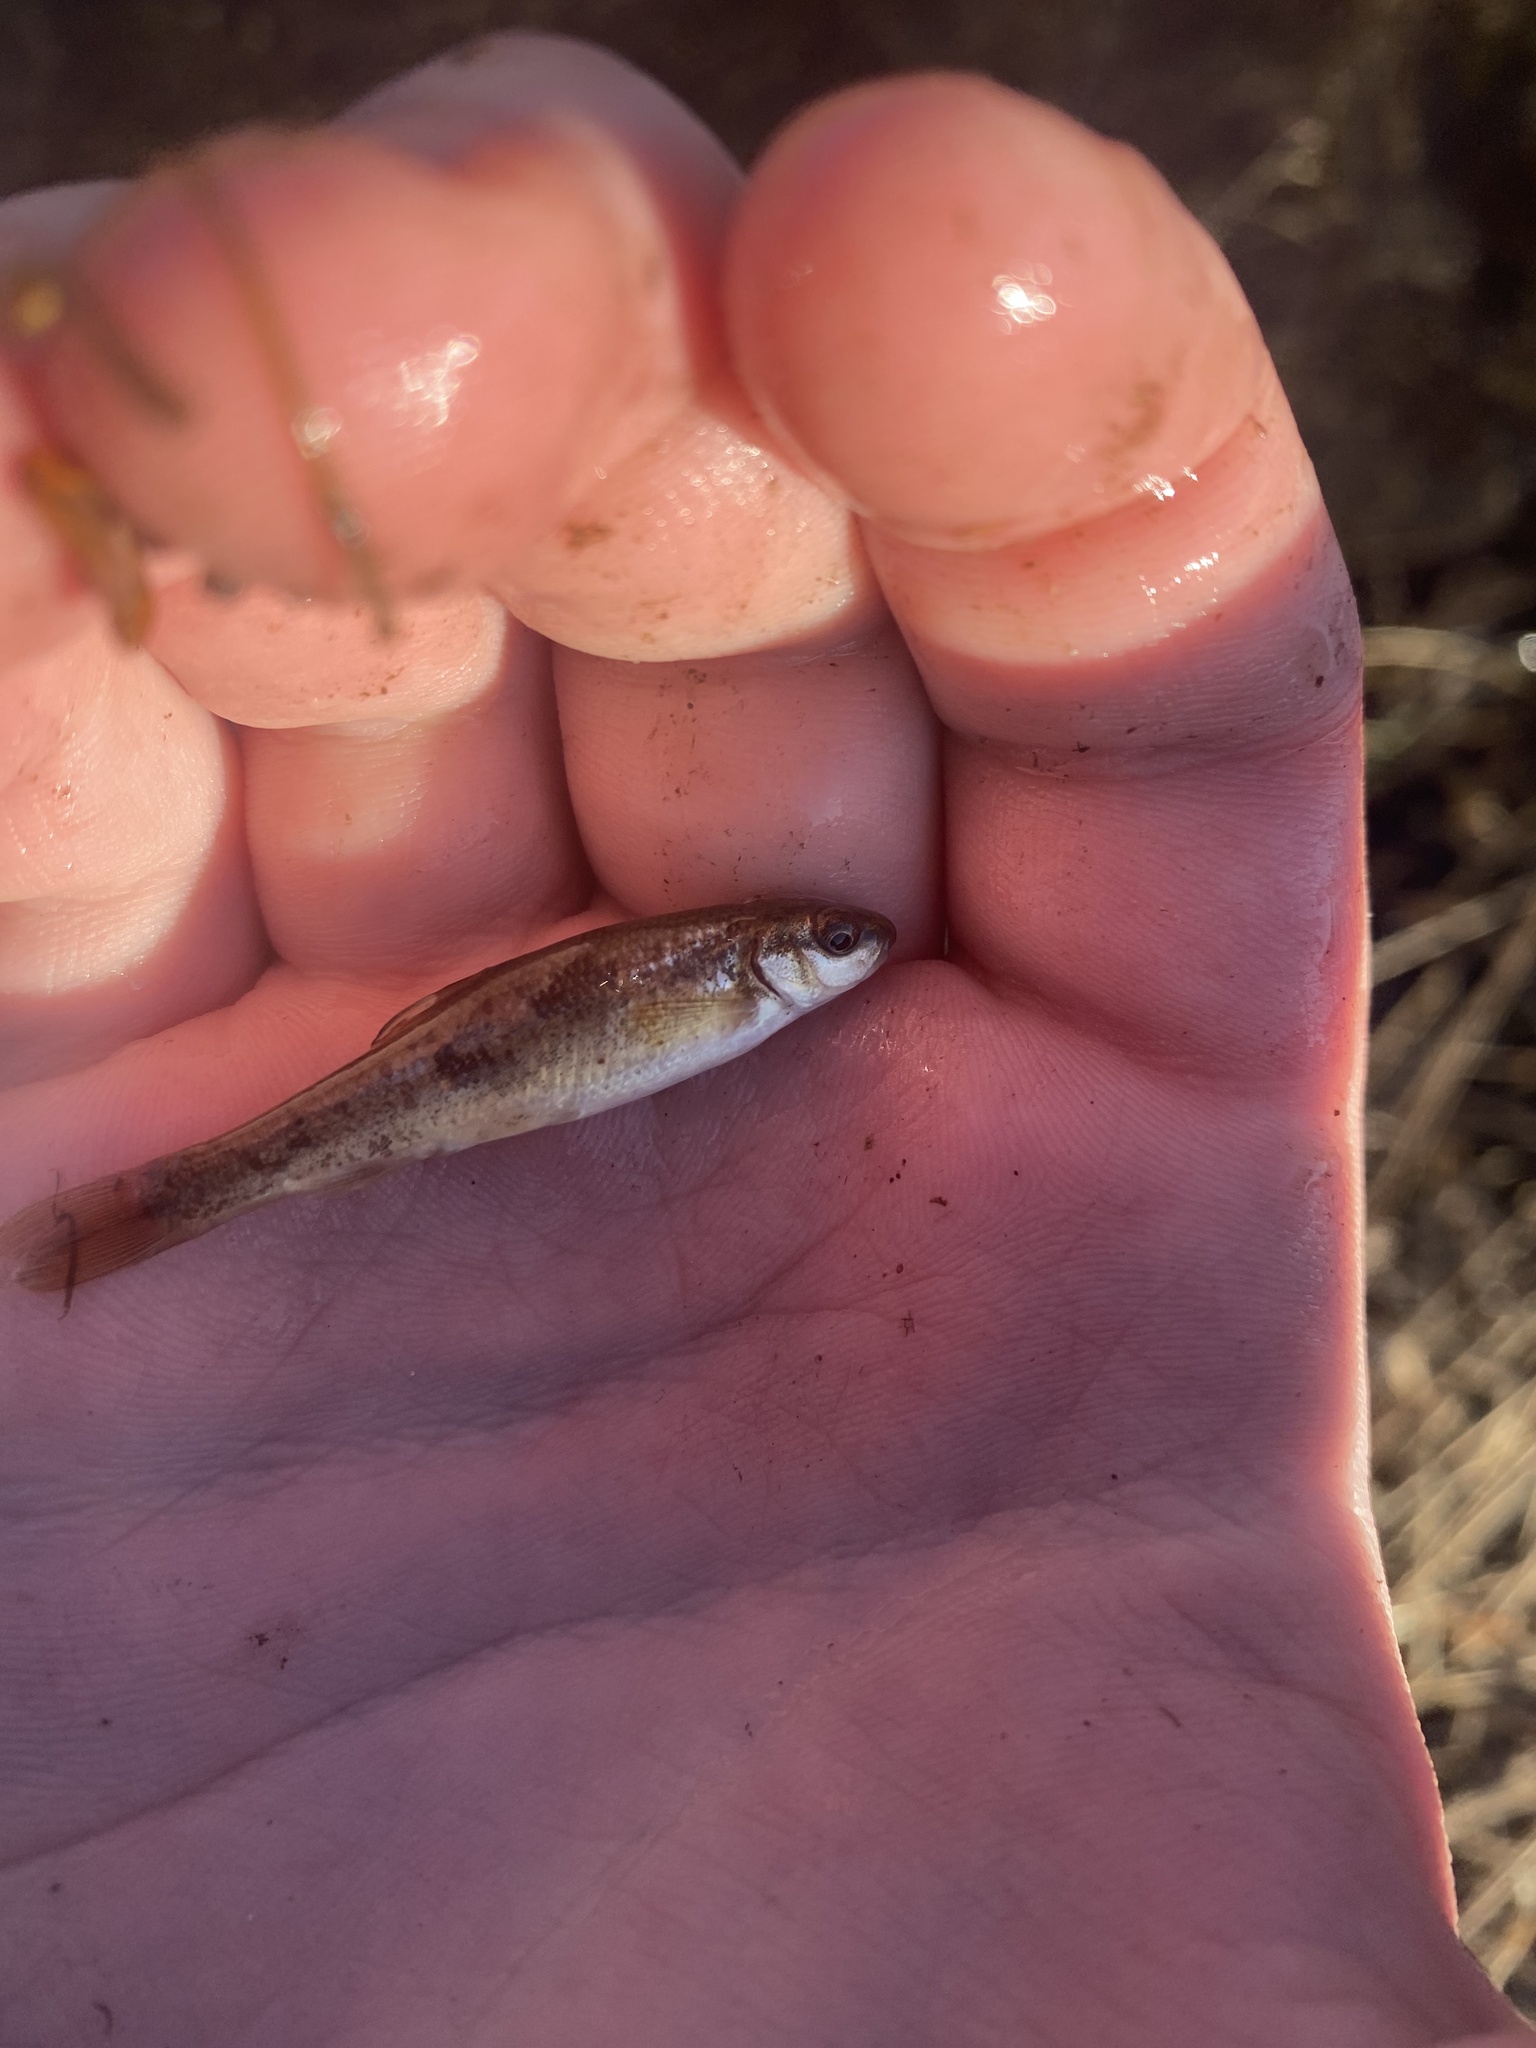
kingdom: Animalia
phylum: Chordata
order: Cypriniformes
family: Cyprinidae
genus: Campostoma
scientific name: Campostoma anomalum
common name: Central stoneroller
